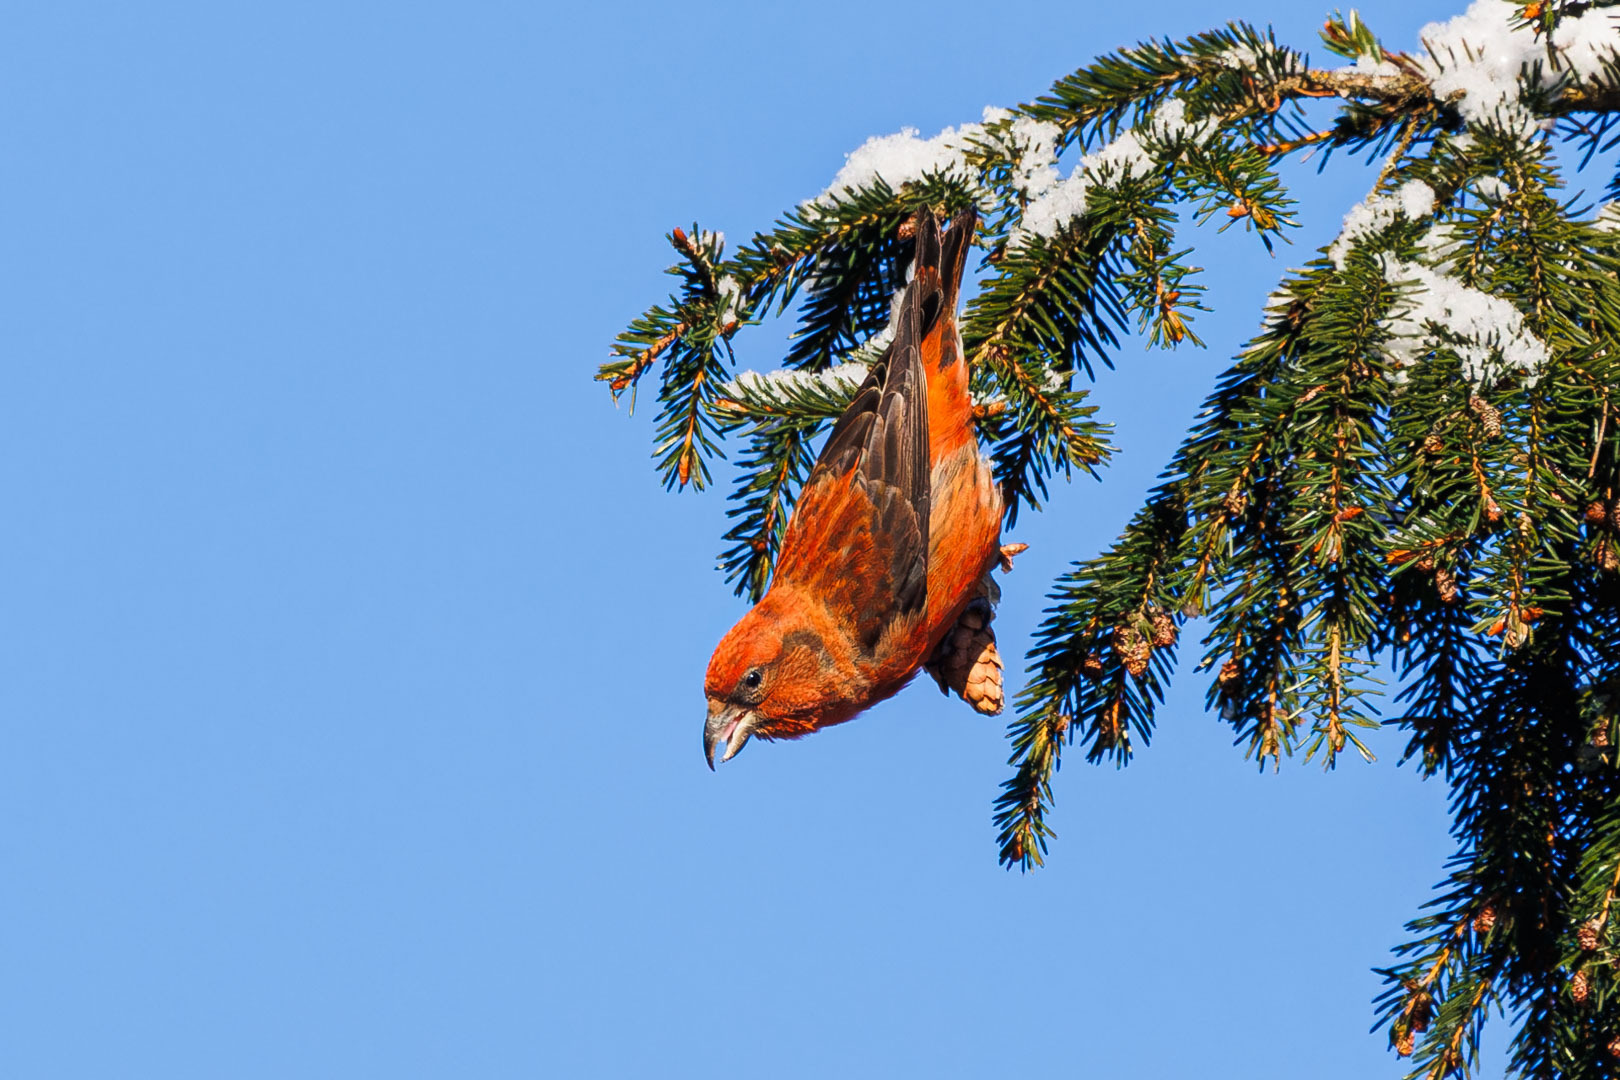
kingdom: Animalia
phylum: Chordata
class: Aves
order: Passeriformes
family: Fringillidae
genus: Loxia
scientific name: Loxia curvirostra
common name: Red crossbill
